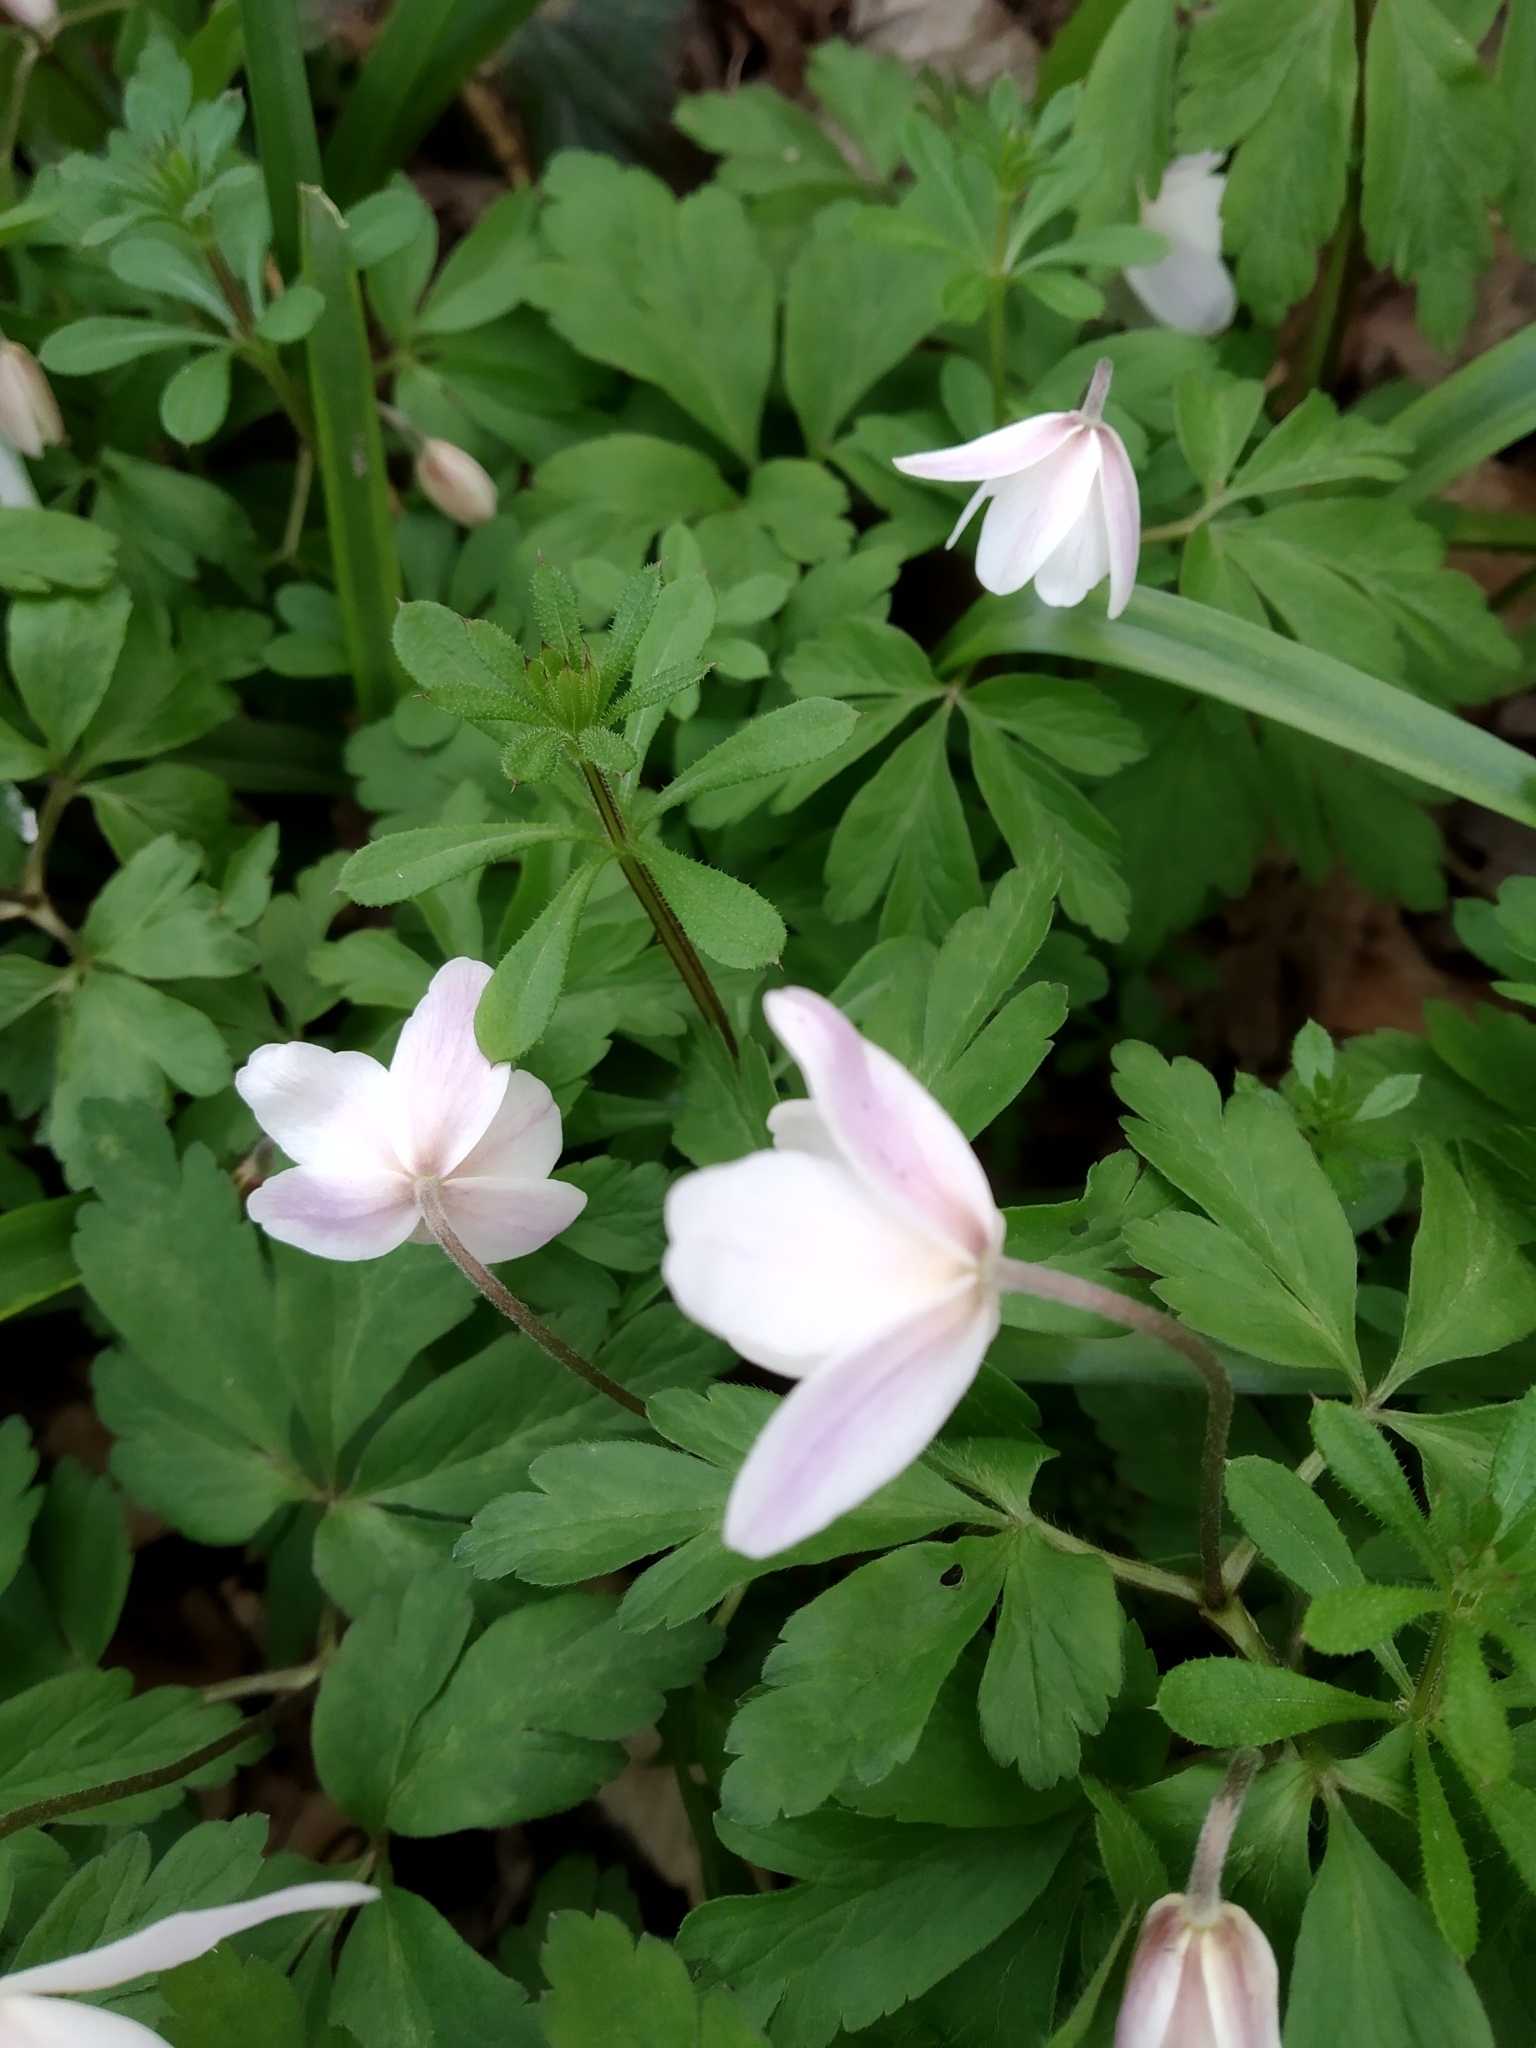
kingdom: Plantae
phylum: Tracheophyta
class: Magnoliopsida
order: Ranunculales
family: Ranunculaceae
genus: Anemone
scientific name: Anemone nemorosa
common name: Wood anemone
